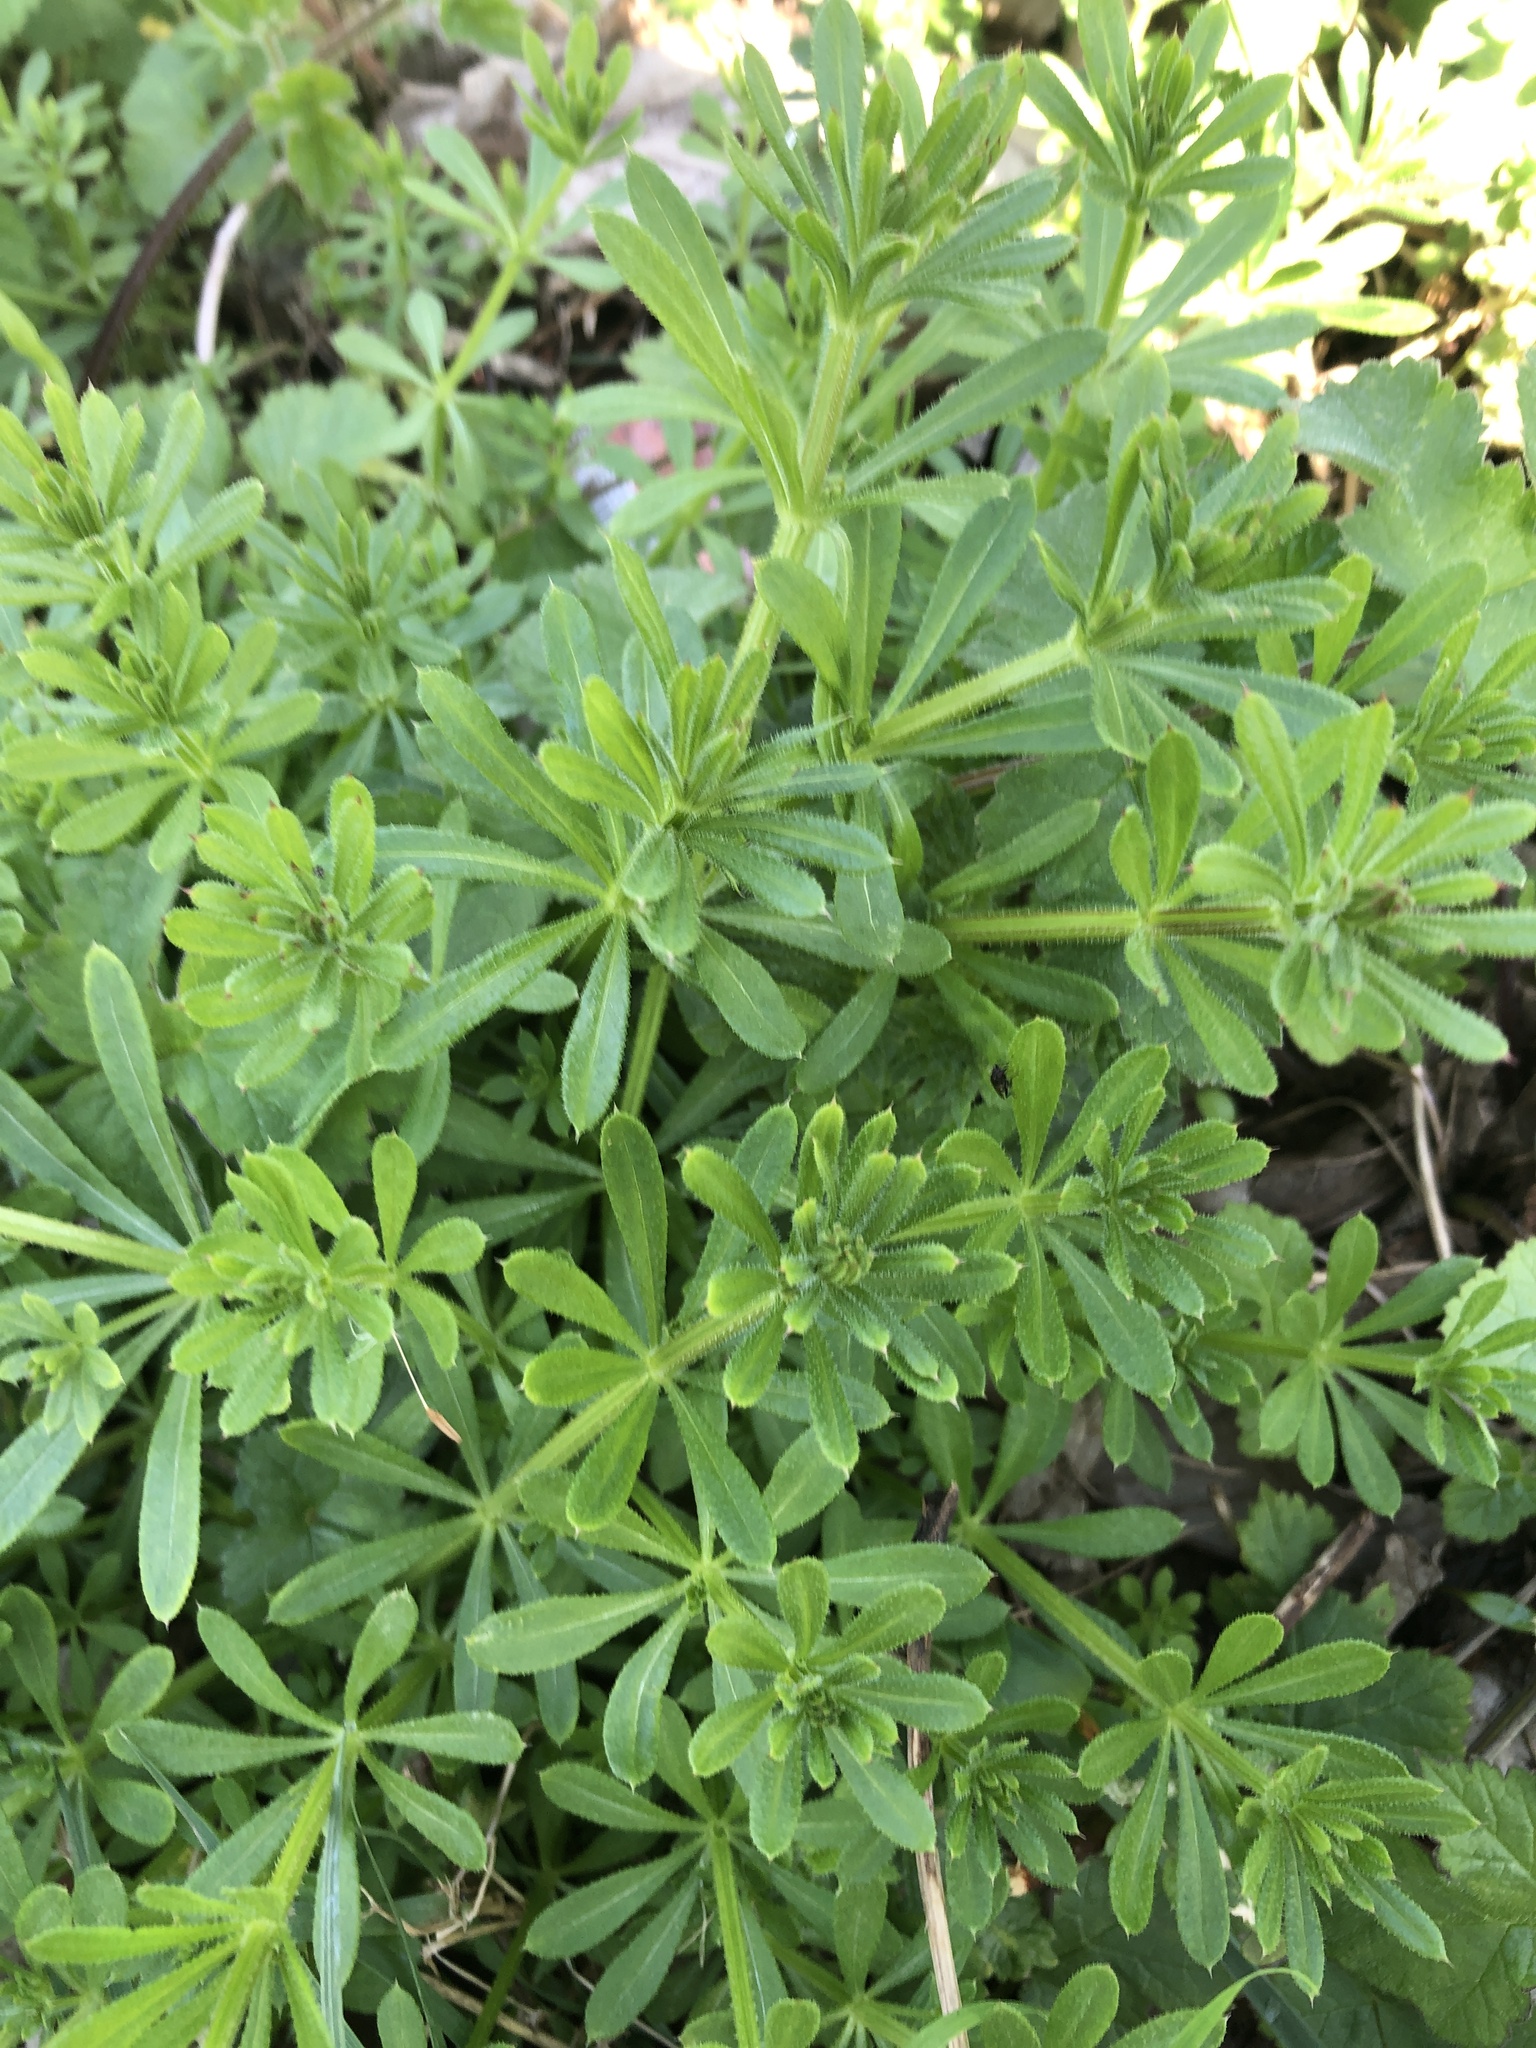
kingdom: Plantae
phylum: Tracheophyta
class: Magnoliopsida
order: Gentianales
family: Rubiaceae
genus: Galium
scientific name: Galium aparine
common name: Cleavers
